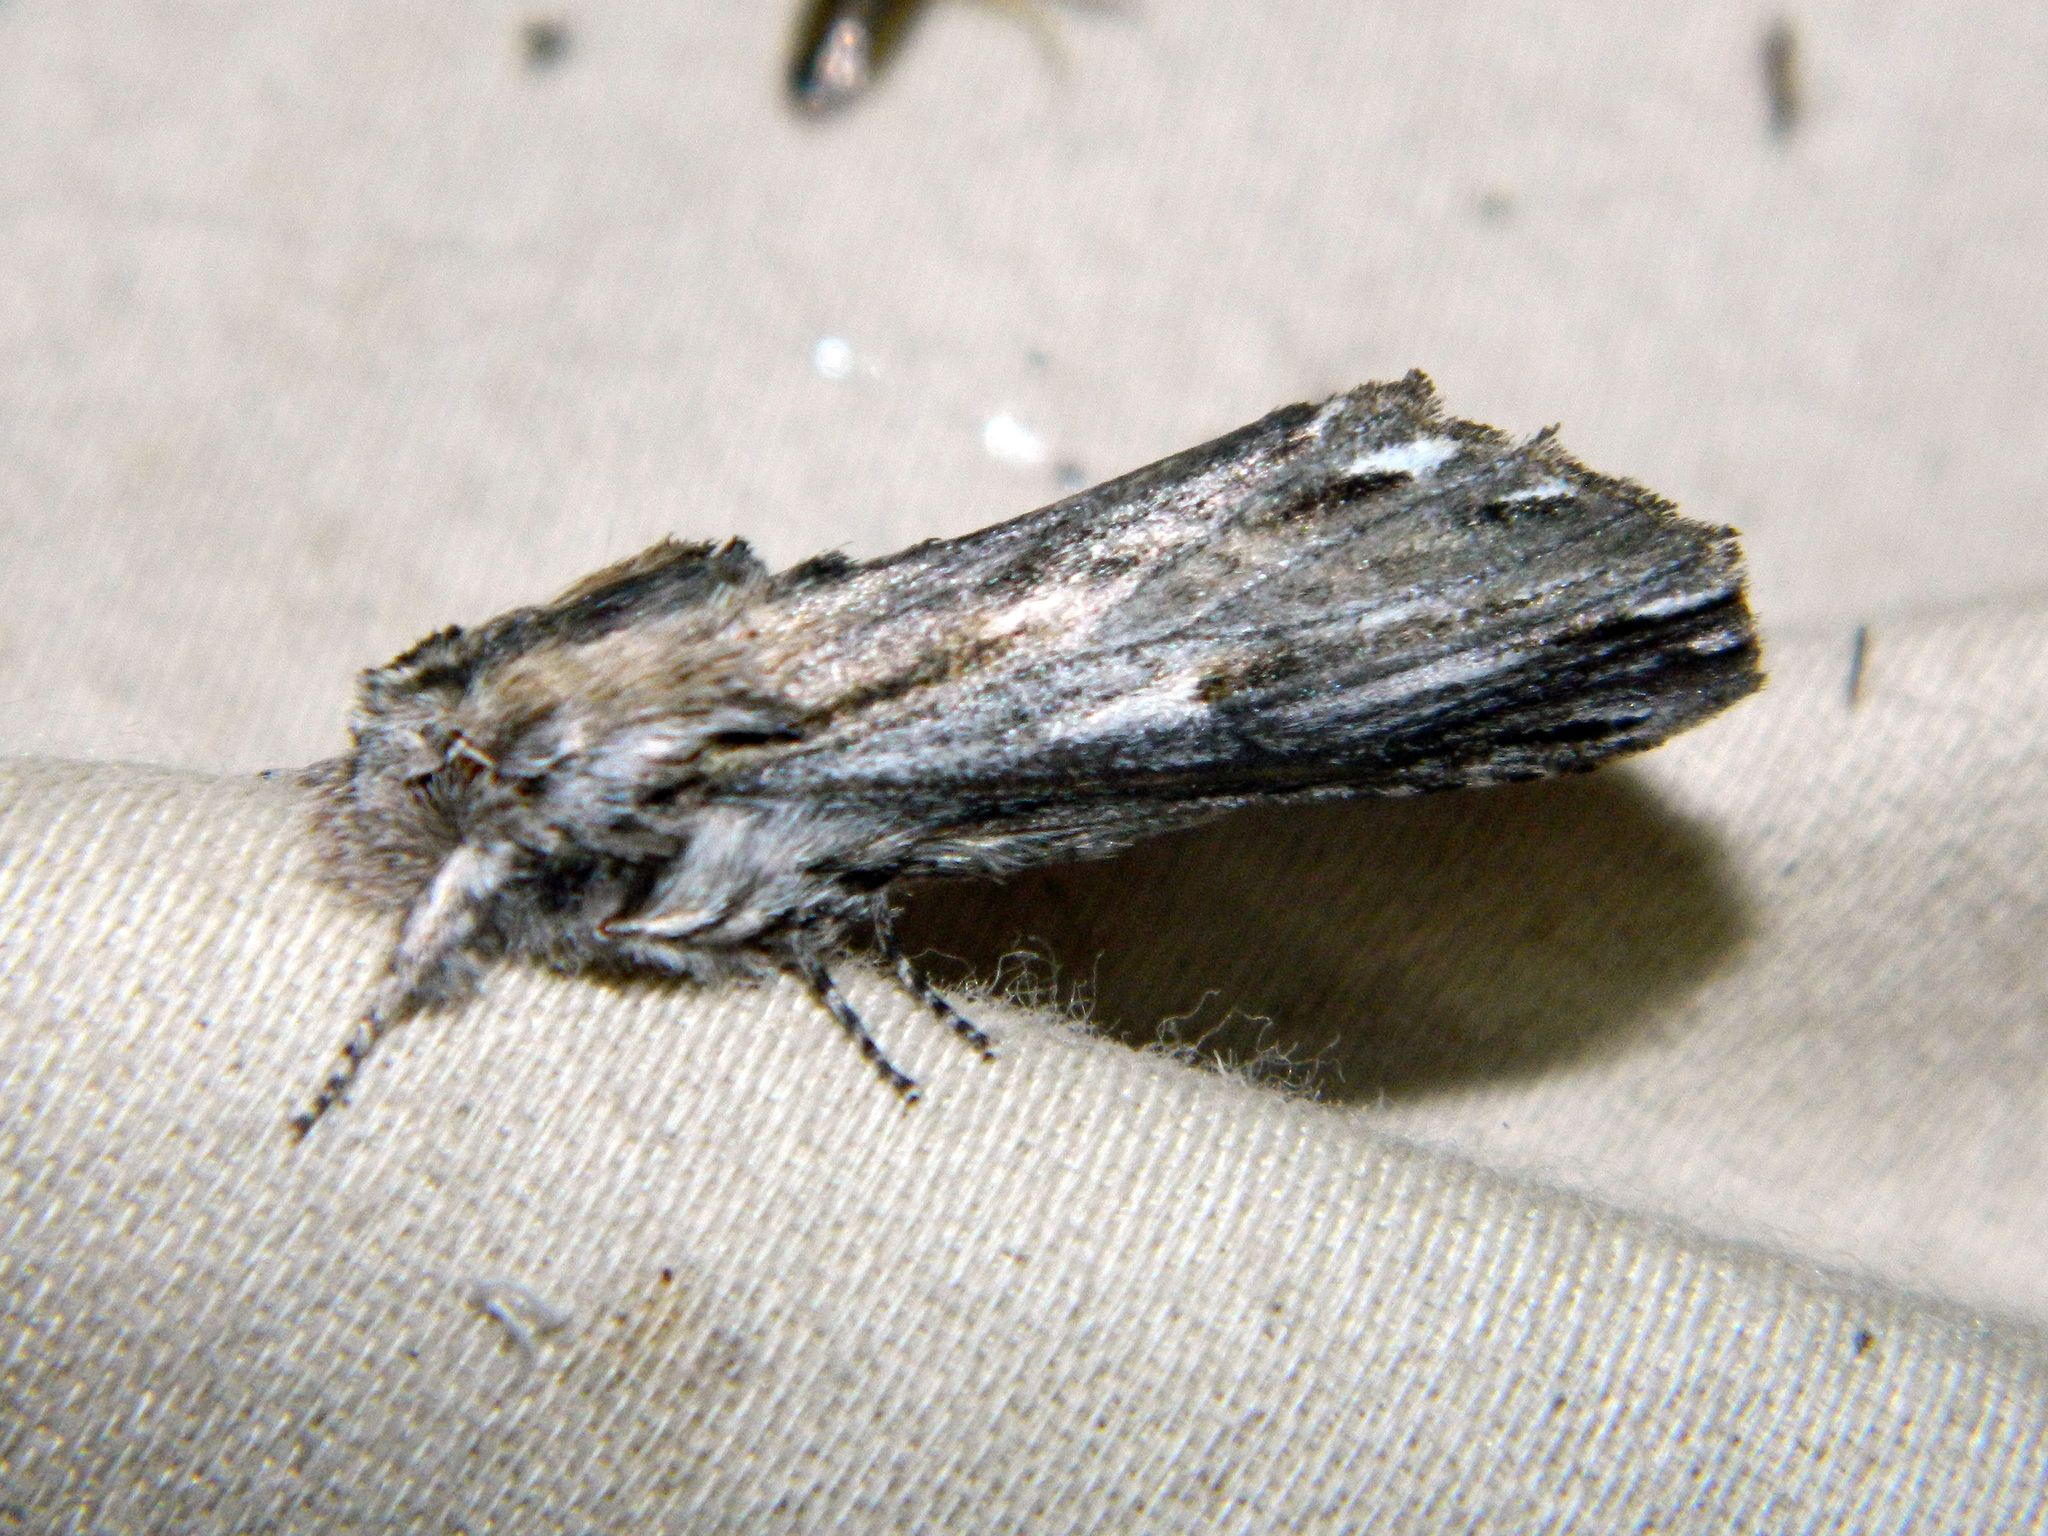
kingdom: Animalia
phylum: Arthropoda
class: Insecta
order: Lepidoptera
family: Notodontidae
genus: Oligocentria
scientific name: Oligocentria Ianassa lignicolor
